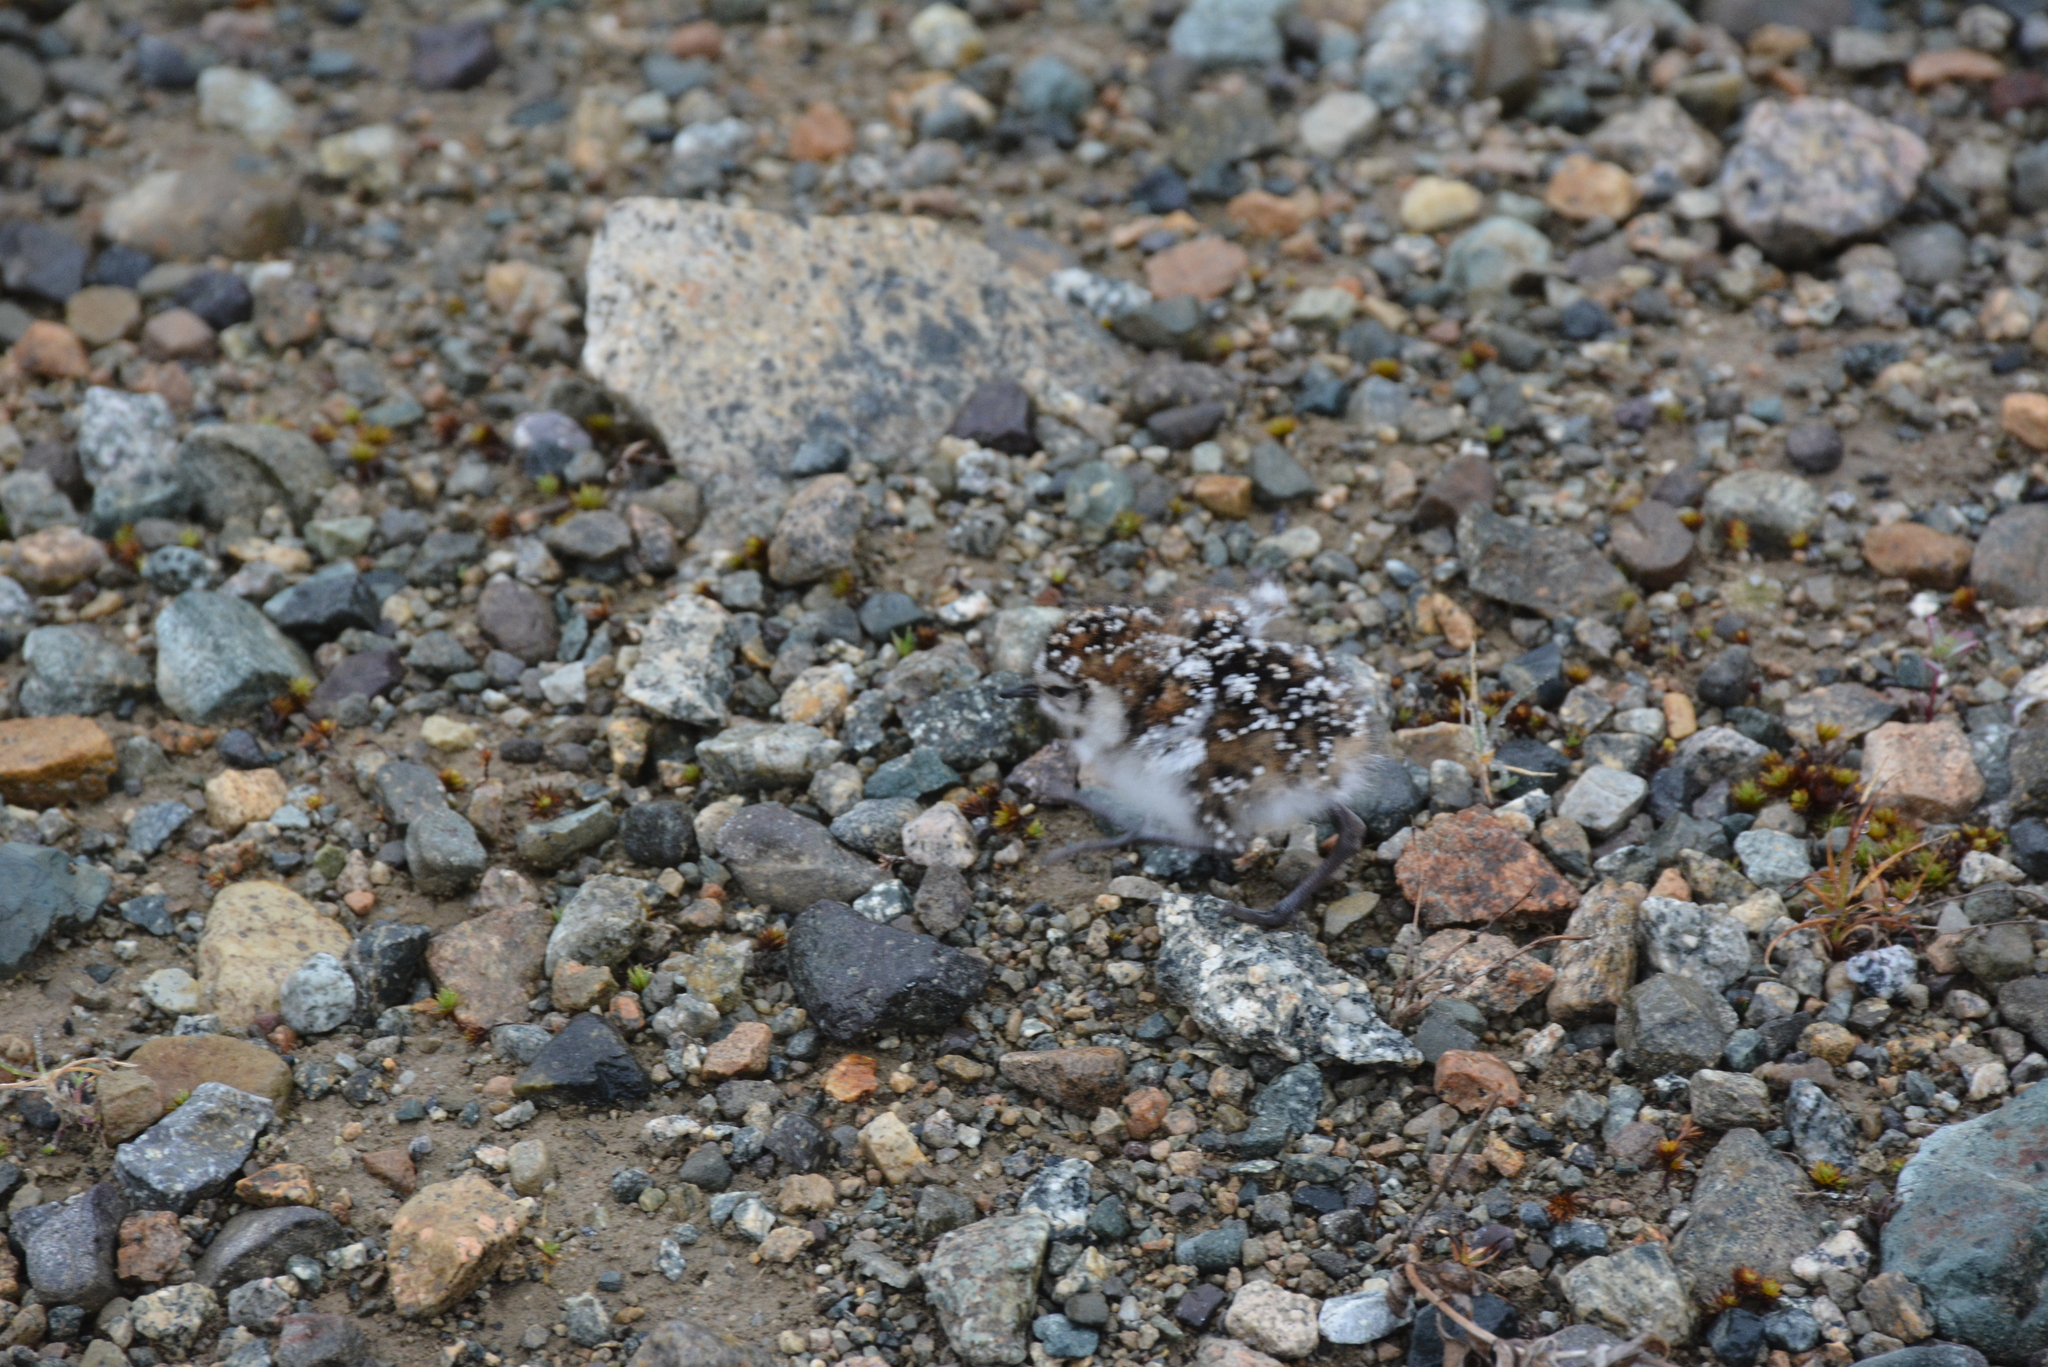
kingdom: Animalia
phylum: Chordata
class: Aves
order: Charadriiformes
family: Scolopacidae
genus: Calidris
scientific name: Calidris bairdii
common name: Baird's sandpiper
